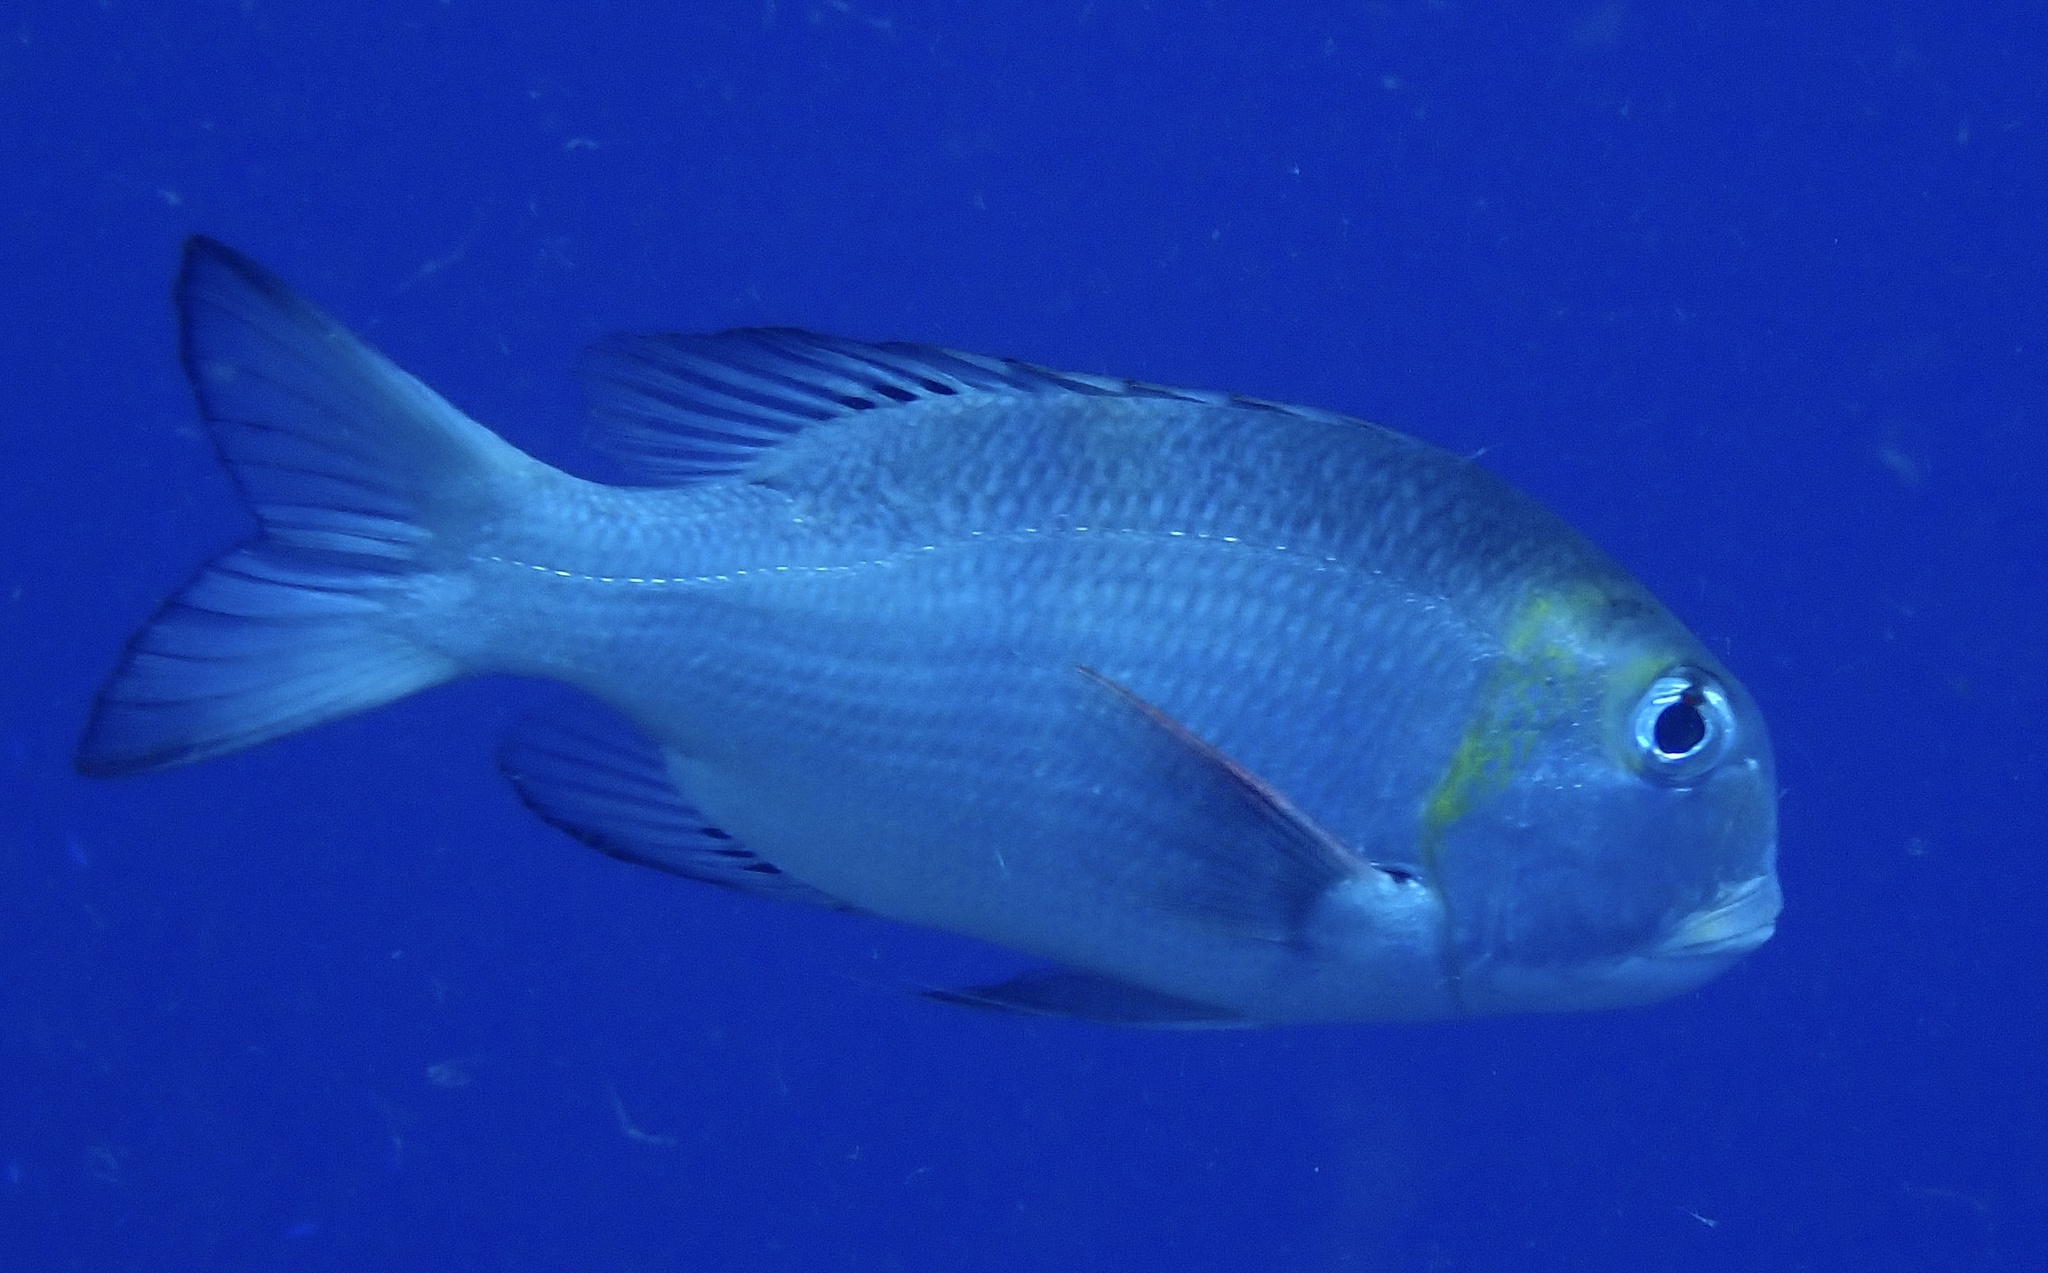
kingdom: Animalia
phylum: Chordata
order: Perciformes
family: Lethrinidae
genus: Monotaxis
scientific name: Monotaxis grandoculis
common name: Bigeye emperor
